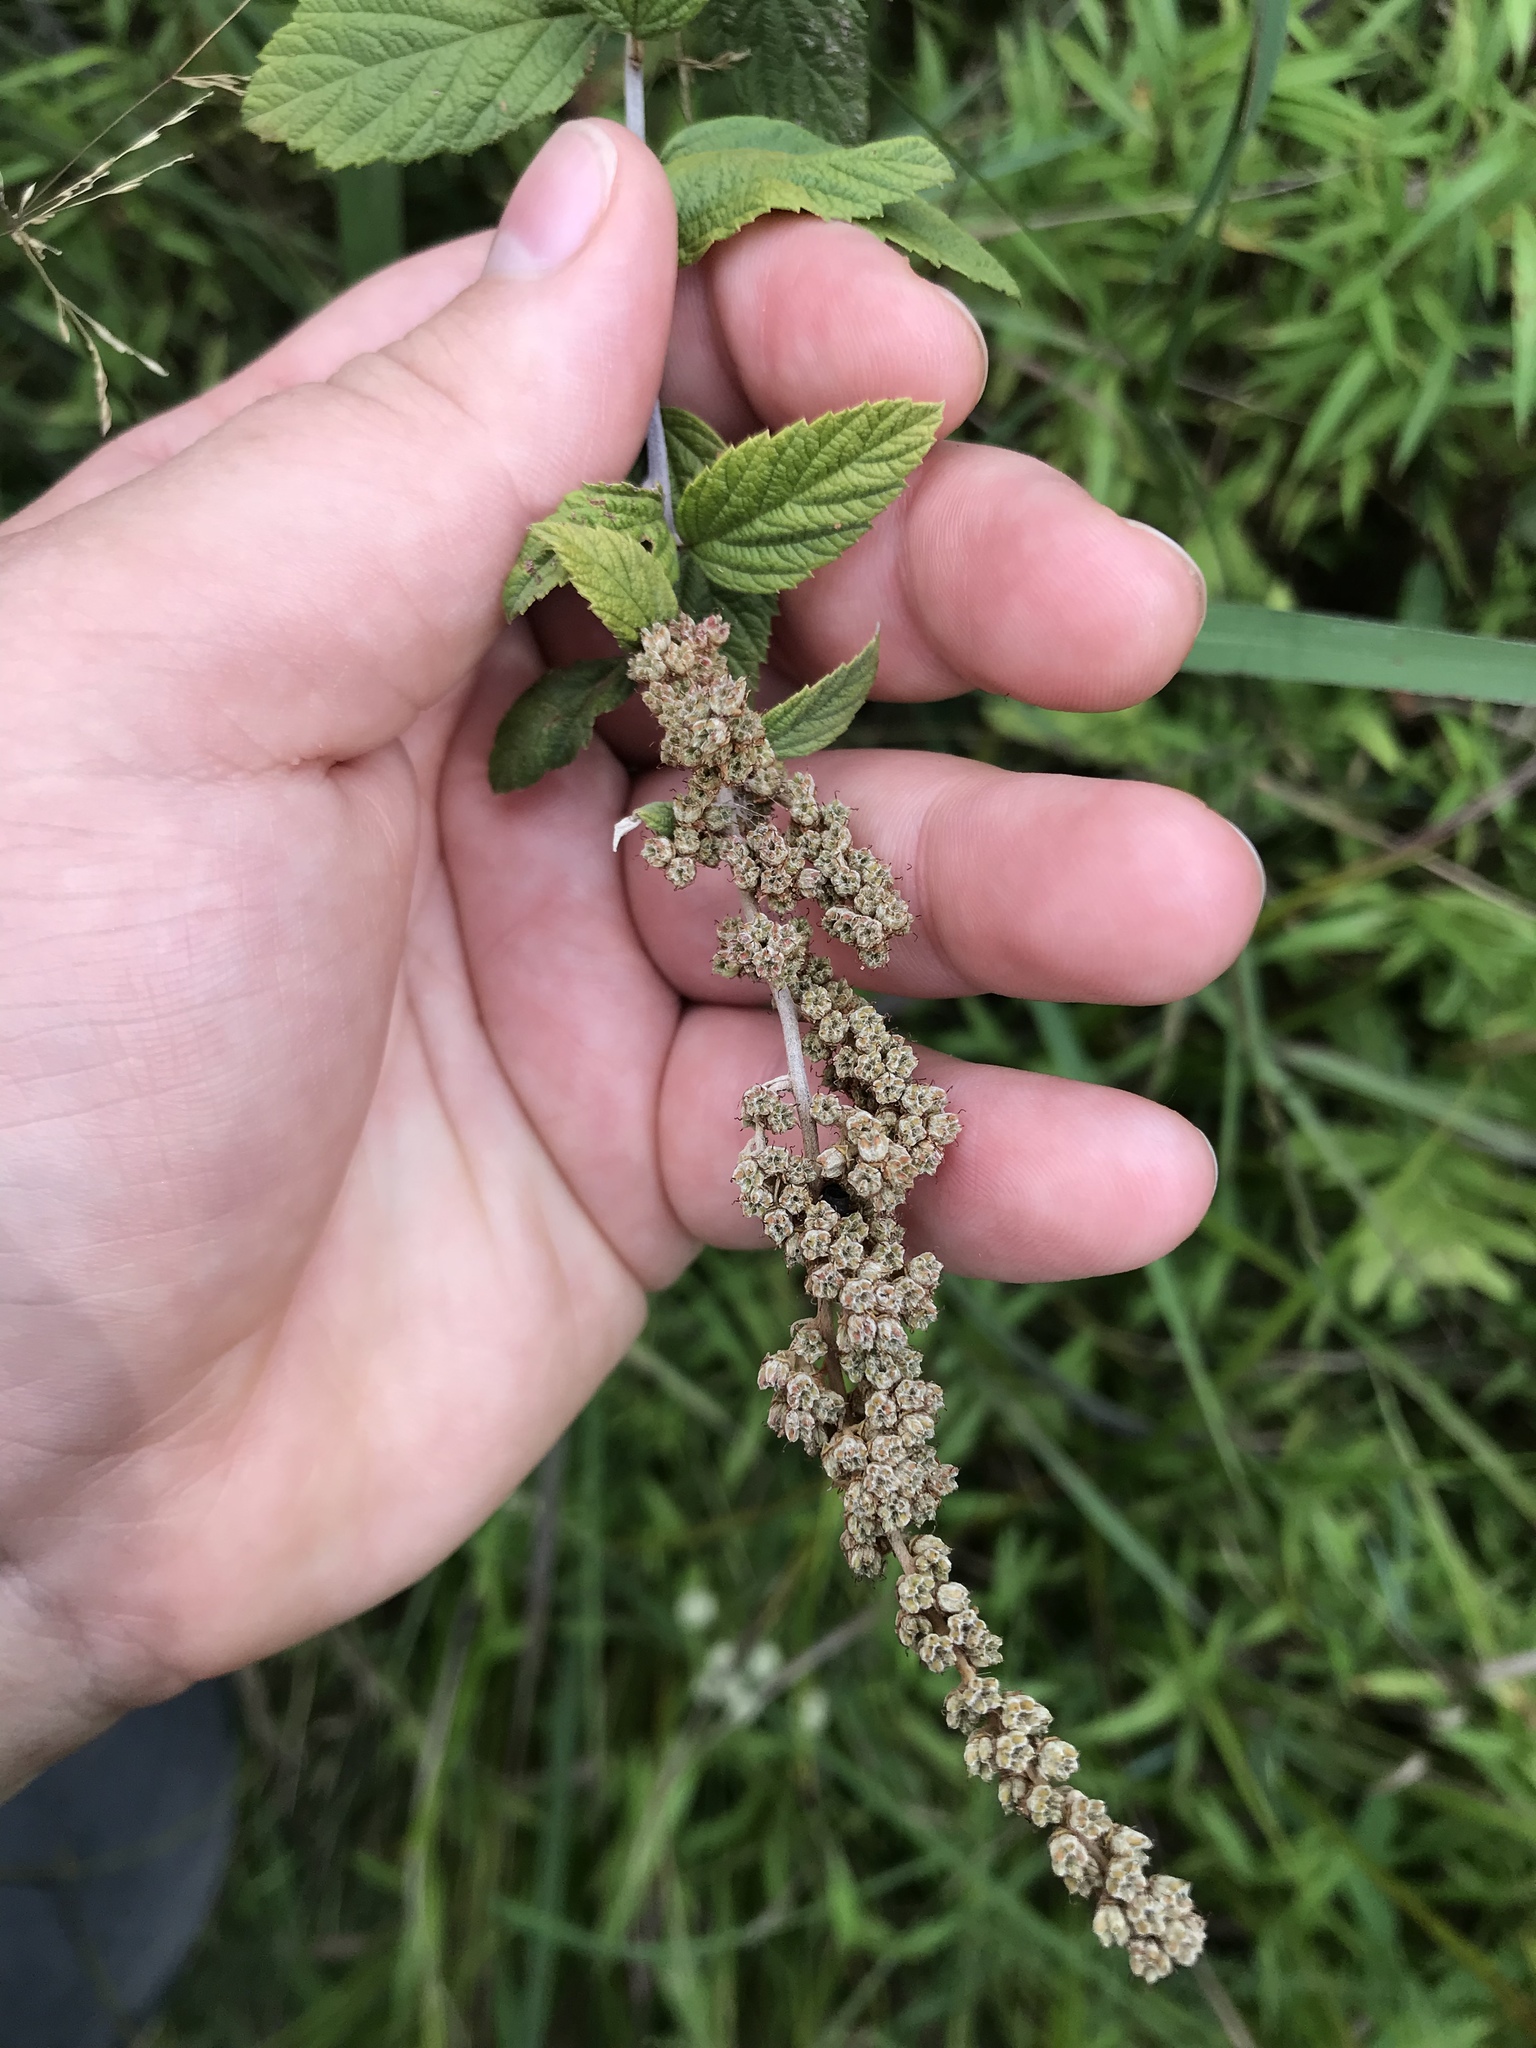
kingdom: Plantae
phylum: Tracheophyta
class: Magnoliopsida
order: Rosales
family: Rosaceae
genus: Spiraea
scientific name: Spiraea tomentosa
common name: Hardhack
